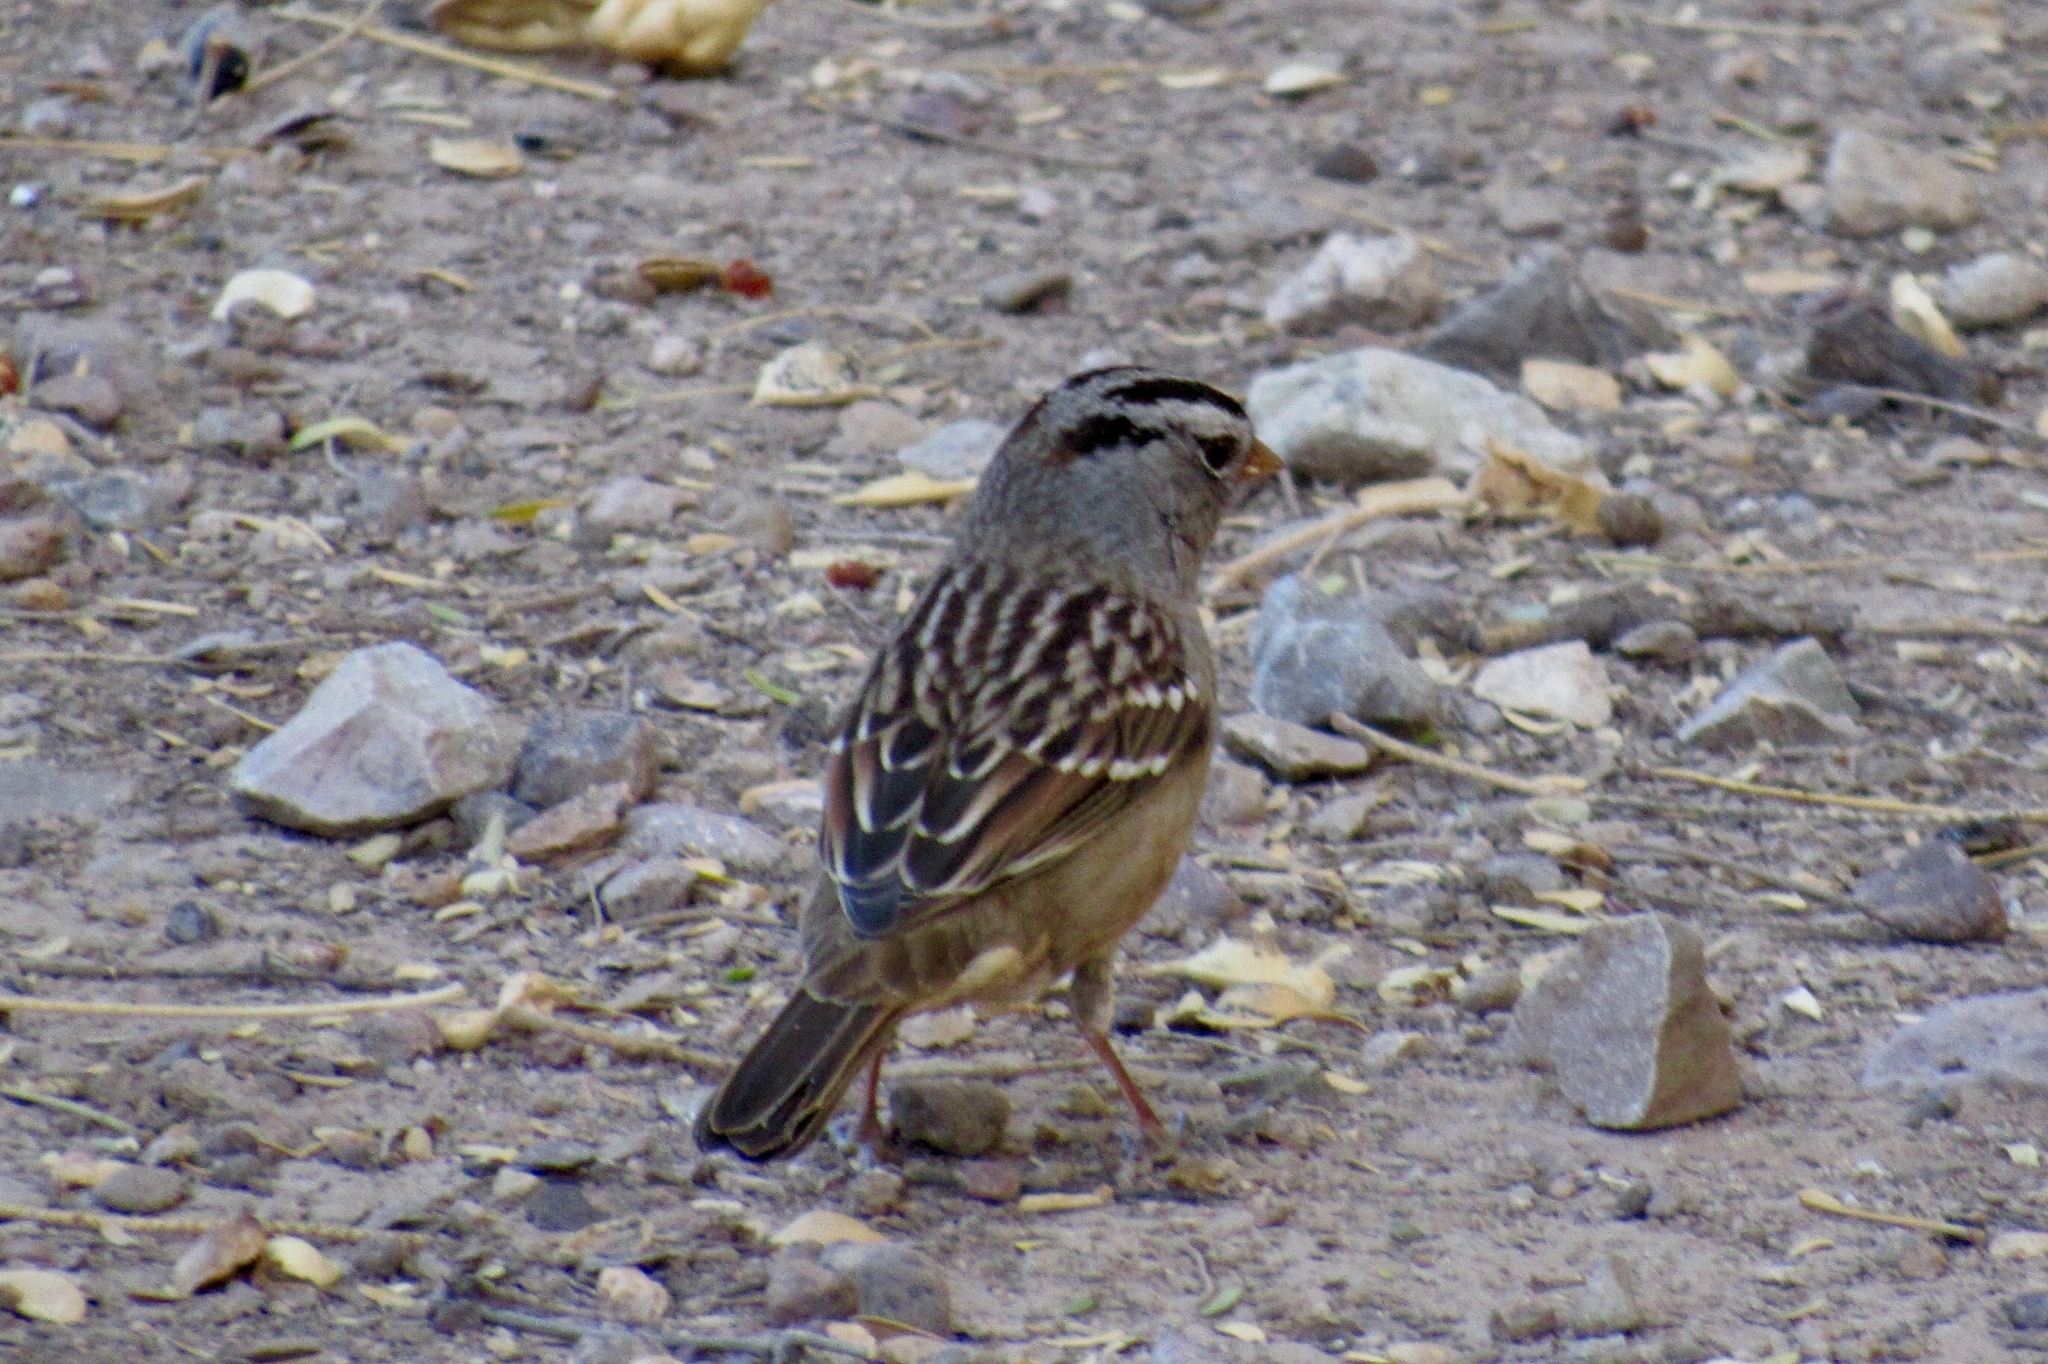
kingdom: Animalia
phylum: Chordata
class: Aves
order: Passeriformes
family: Passerellidae
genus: Zonotrichia
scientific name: Zonotrichia leucophrys
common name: White-crowned sparrow
